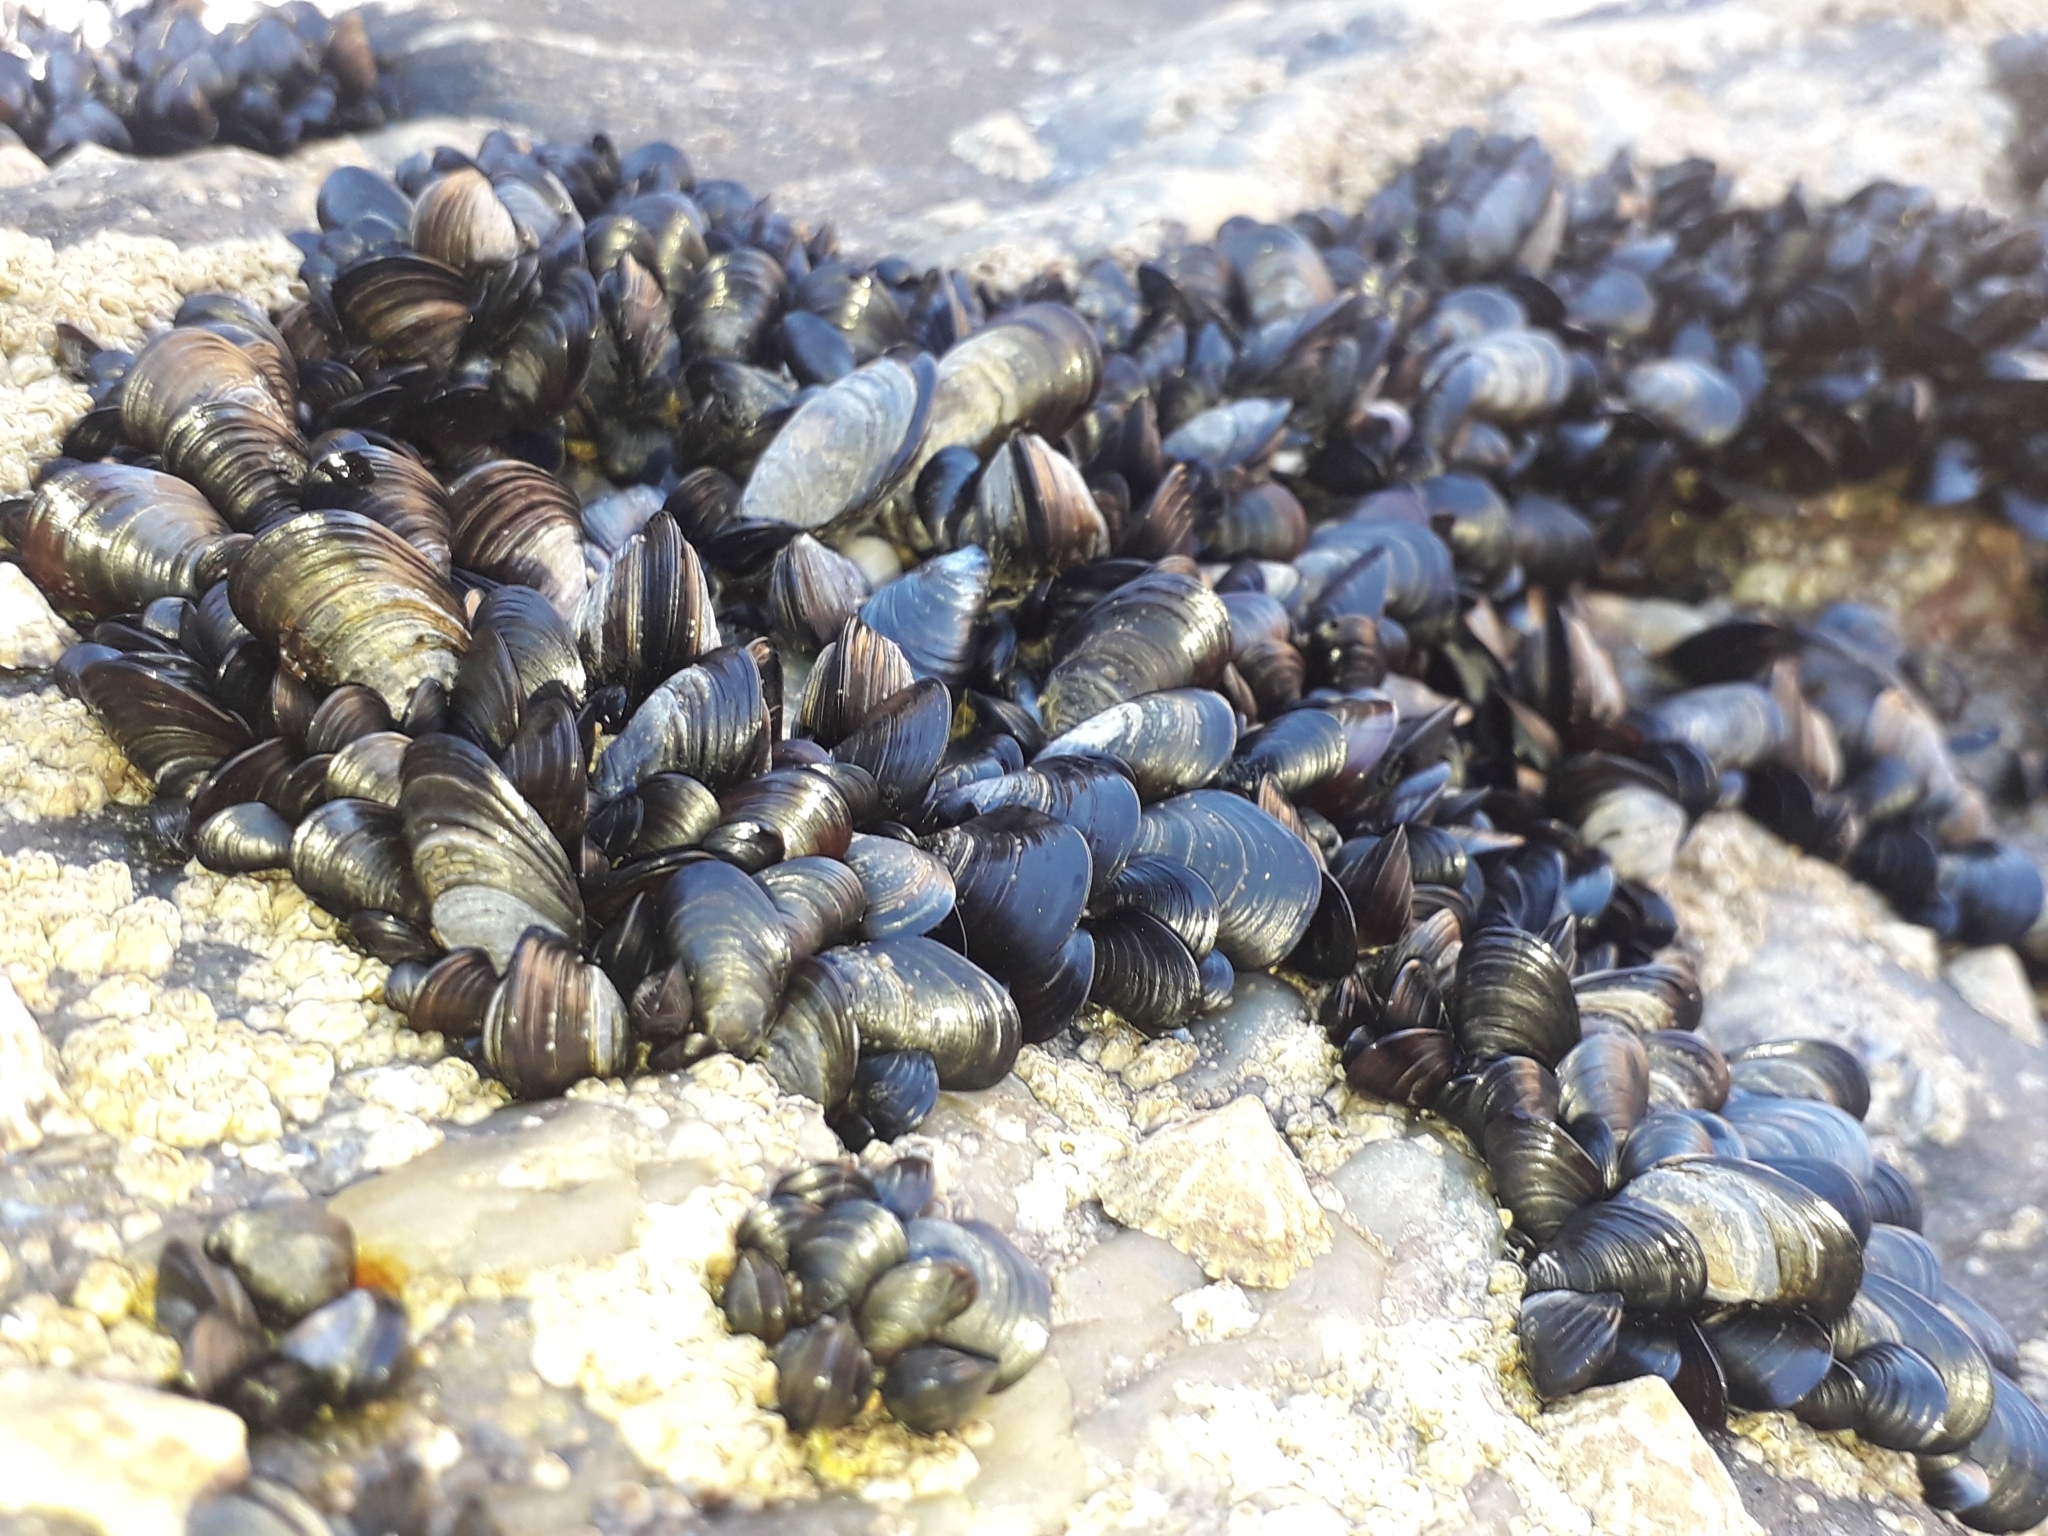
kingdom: Animalia
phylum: Mollusca
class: Bivalvia
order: Mytilida
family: Mytilidae
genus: Mytilus
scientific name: Mytilus edulis
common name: Blue mussel
